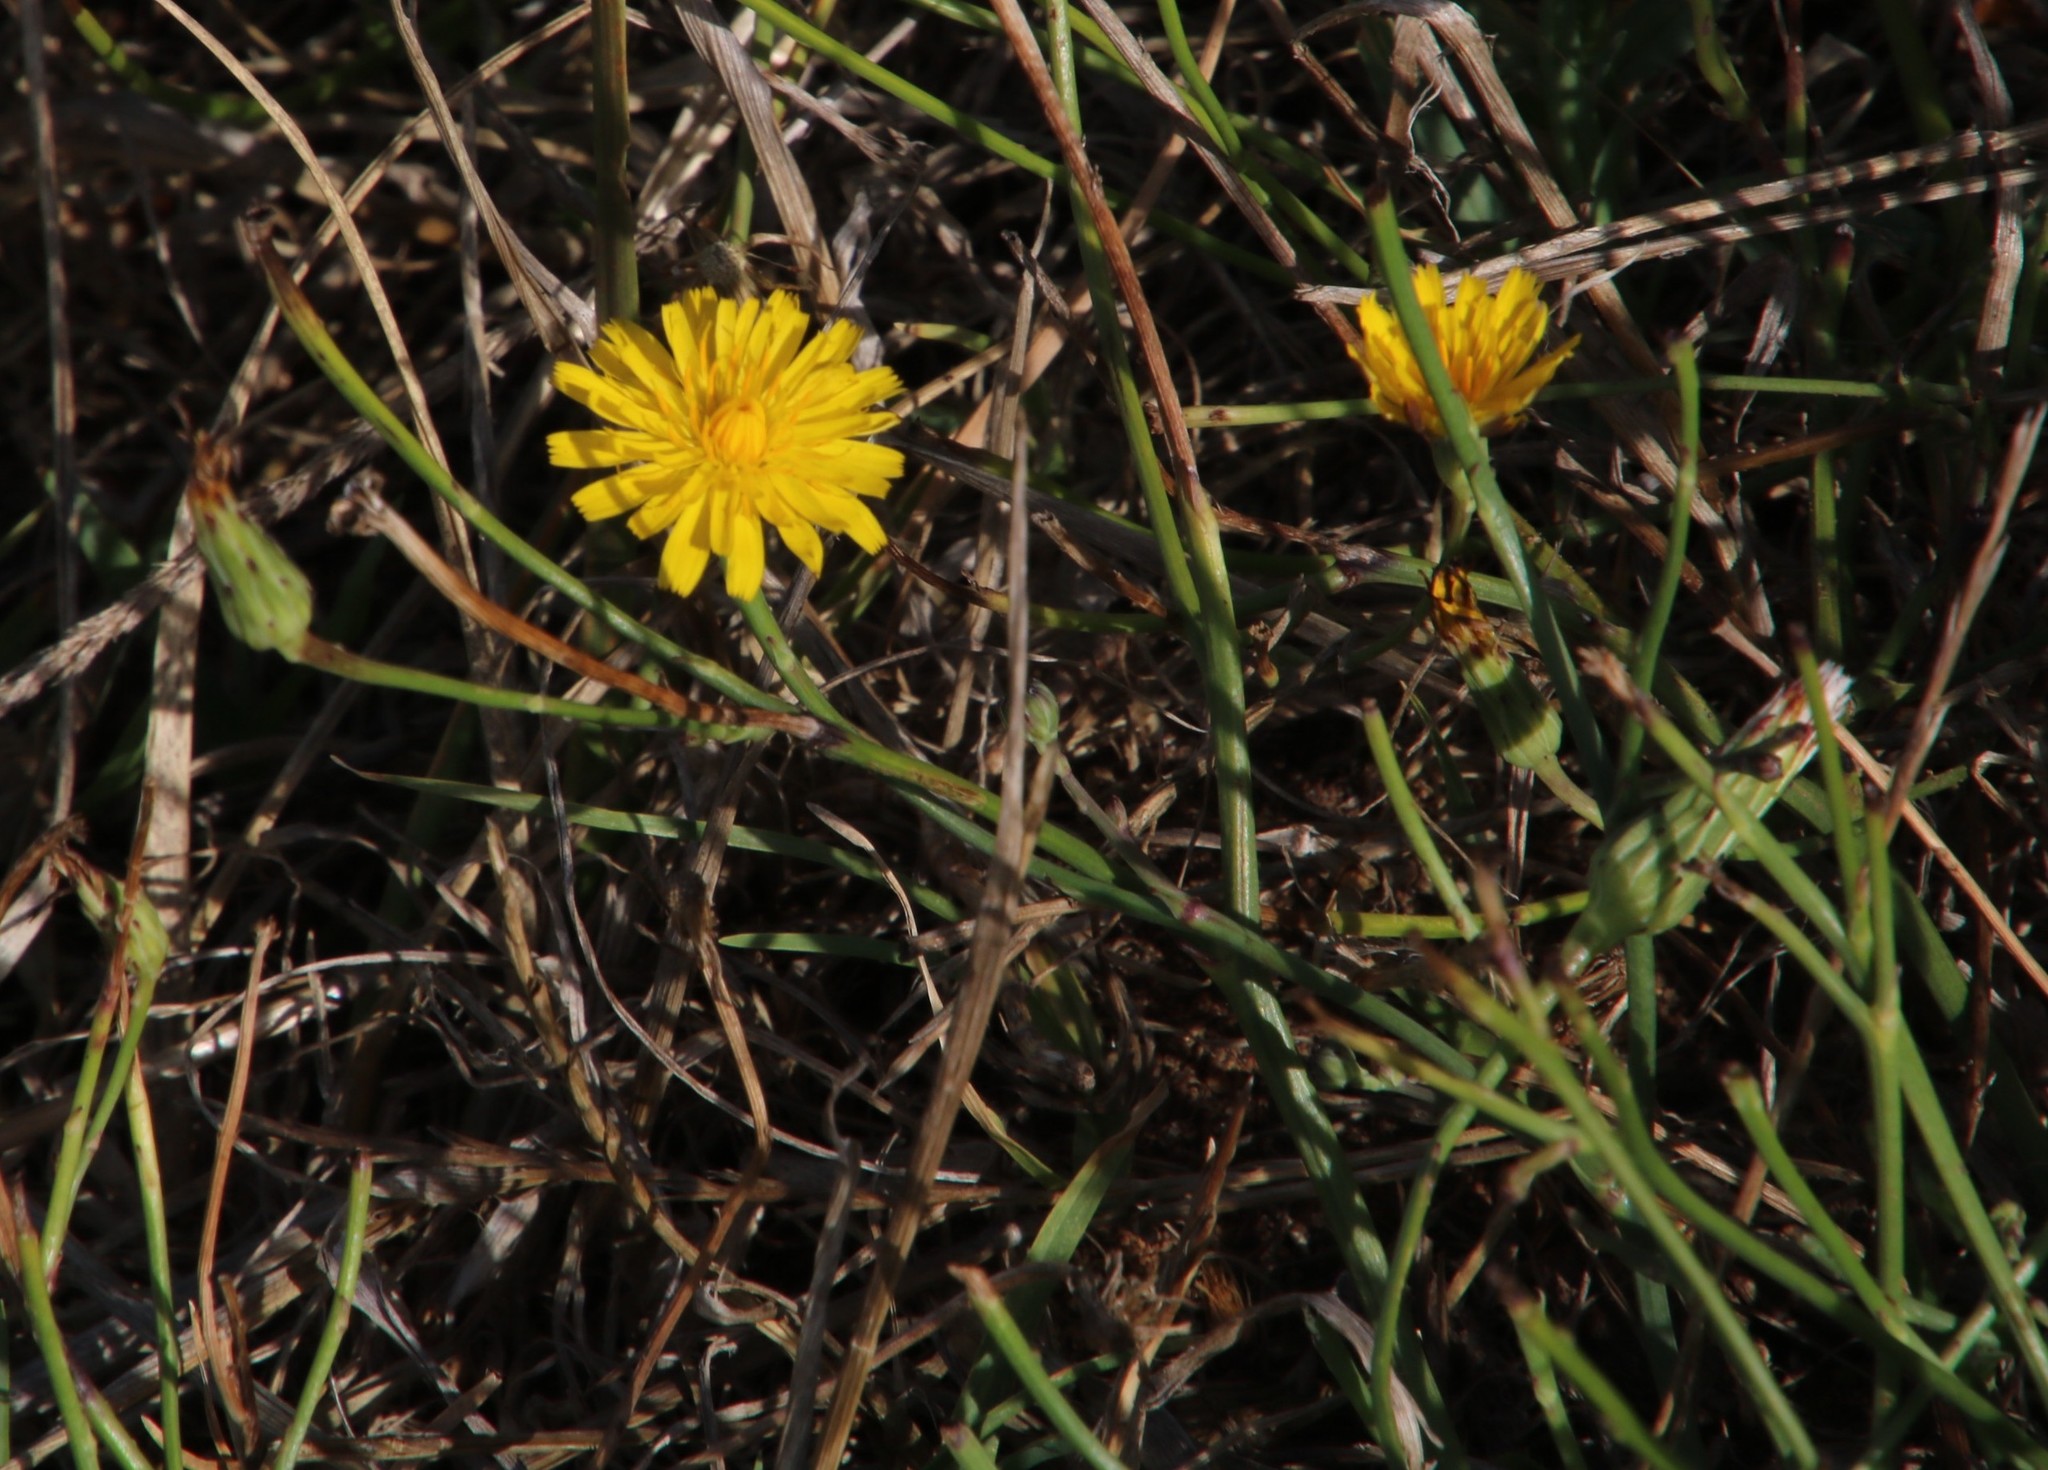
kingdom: Plantae
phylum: Tracheophyta
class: Magnoliopsida
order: Asterales
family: Asteraceae
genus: Hypochaeris
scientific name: Hypochaeris radicata
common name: Flatweed
